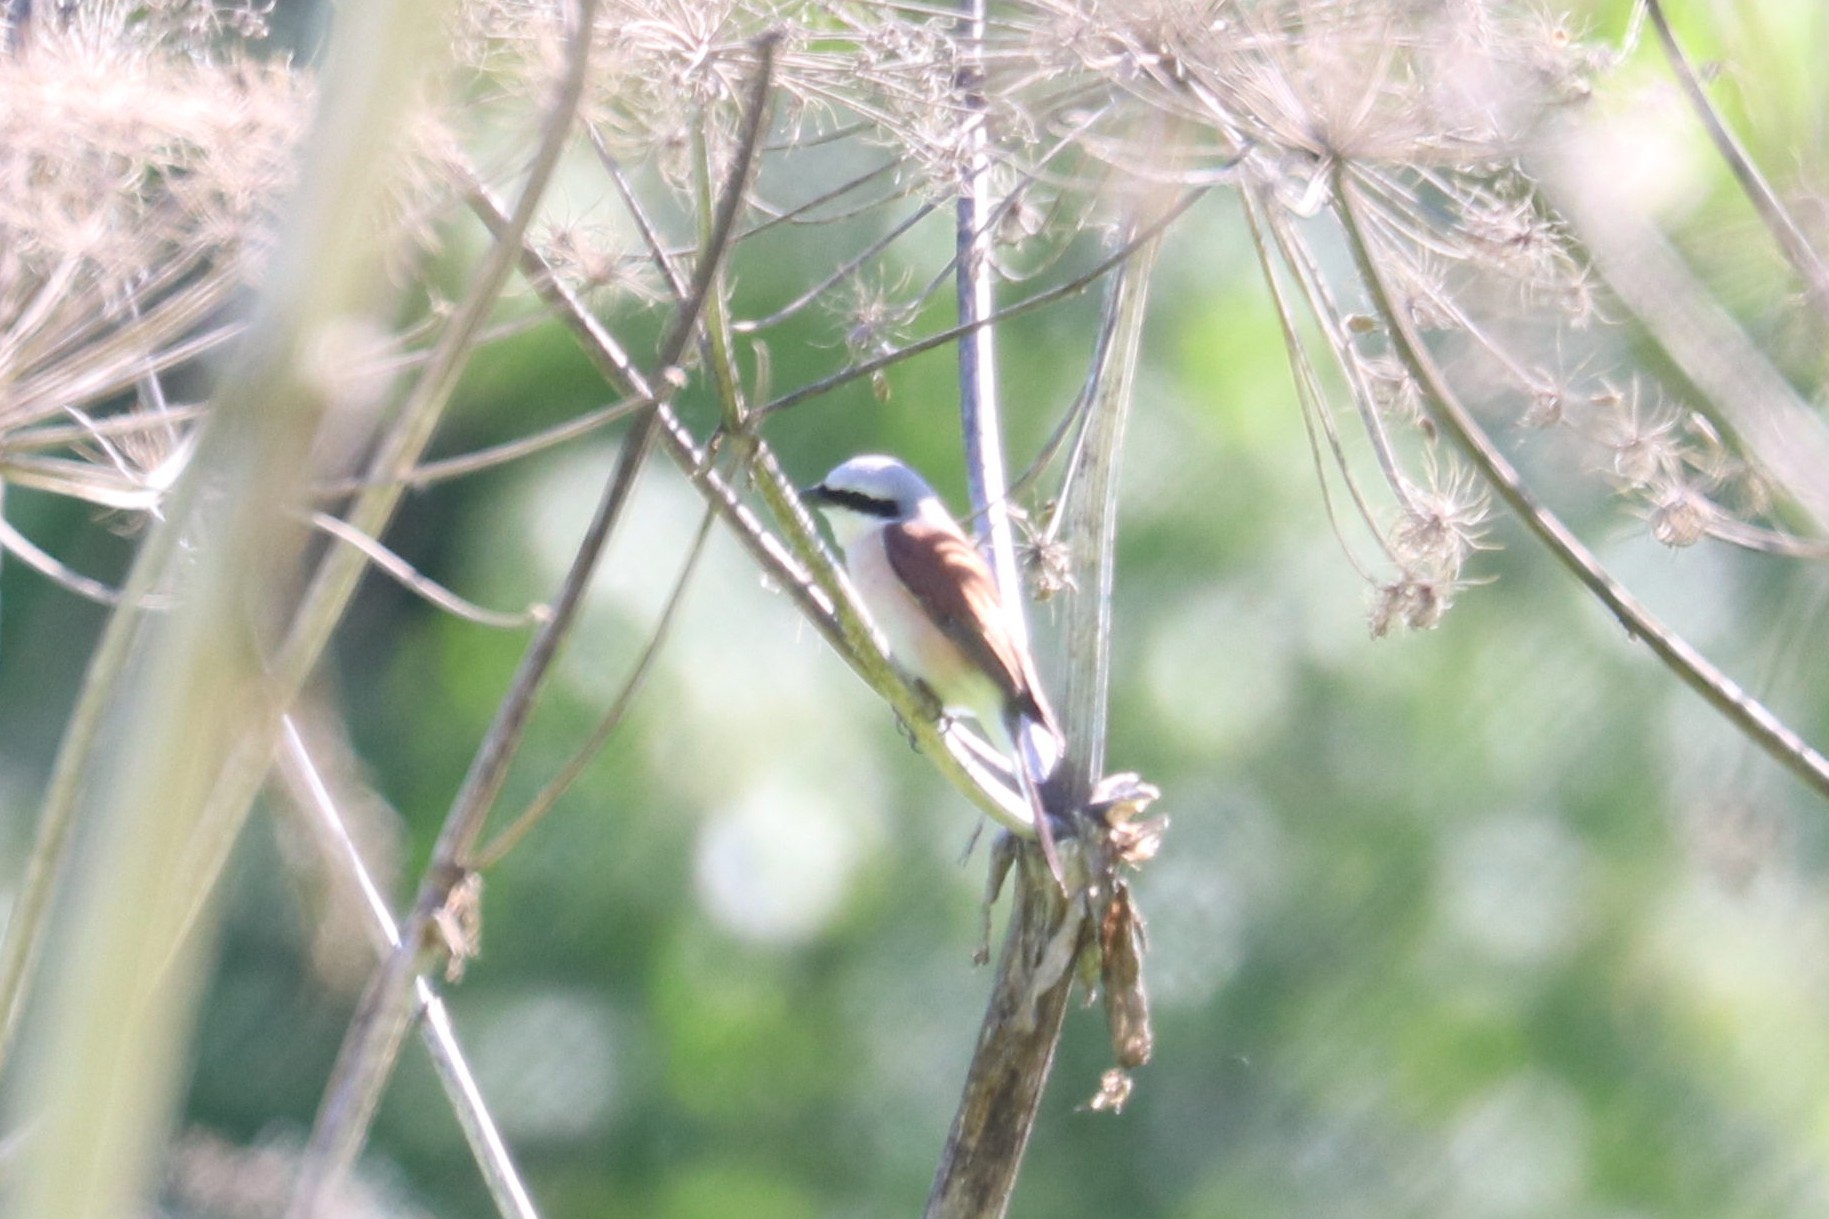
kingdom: Animalia
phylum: Chordata
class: Aves
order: Passeriformes
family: Laniidae
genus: Lanius
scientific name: Lanius collurio
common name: Red-backed shrike
